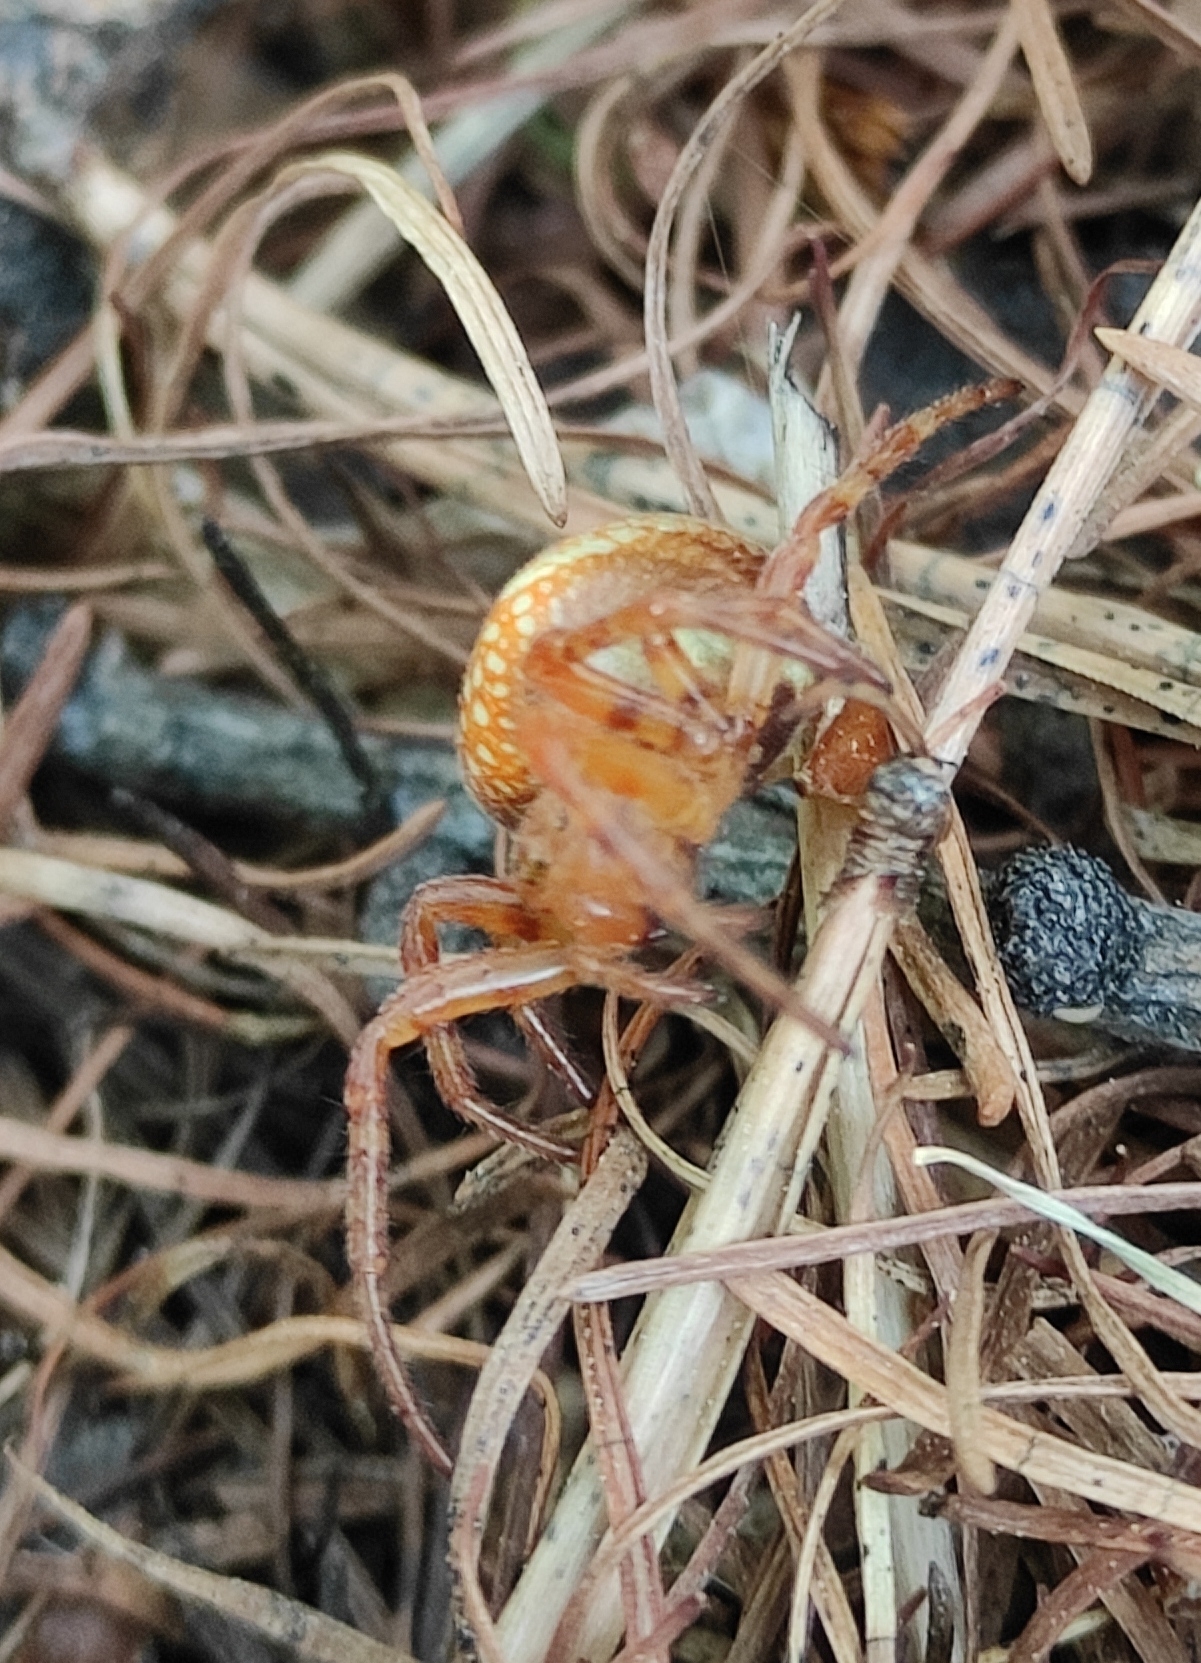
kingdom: Animalia
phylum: Arthropoda
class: Arachnida
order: Araneae
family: Araneidae
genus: Araneus
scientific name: Araneus alsine
